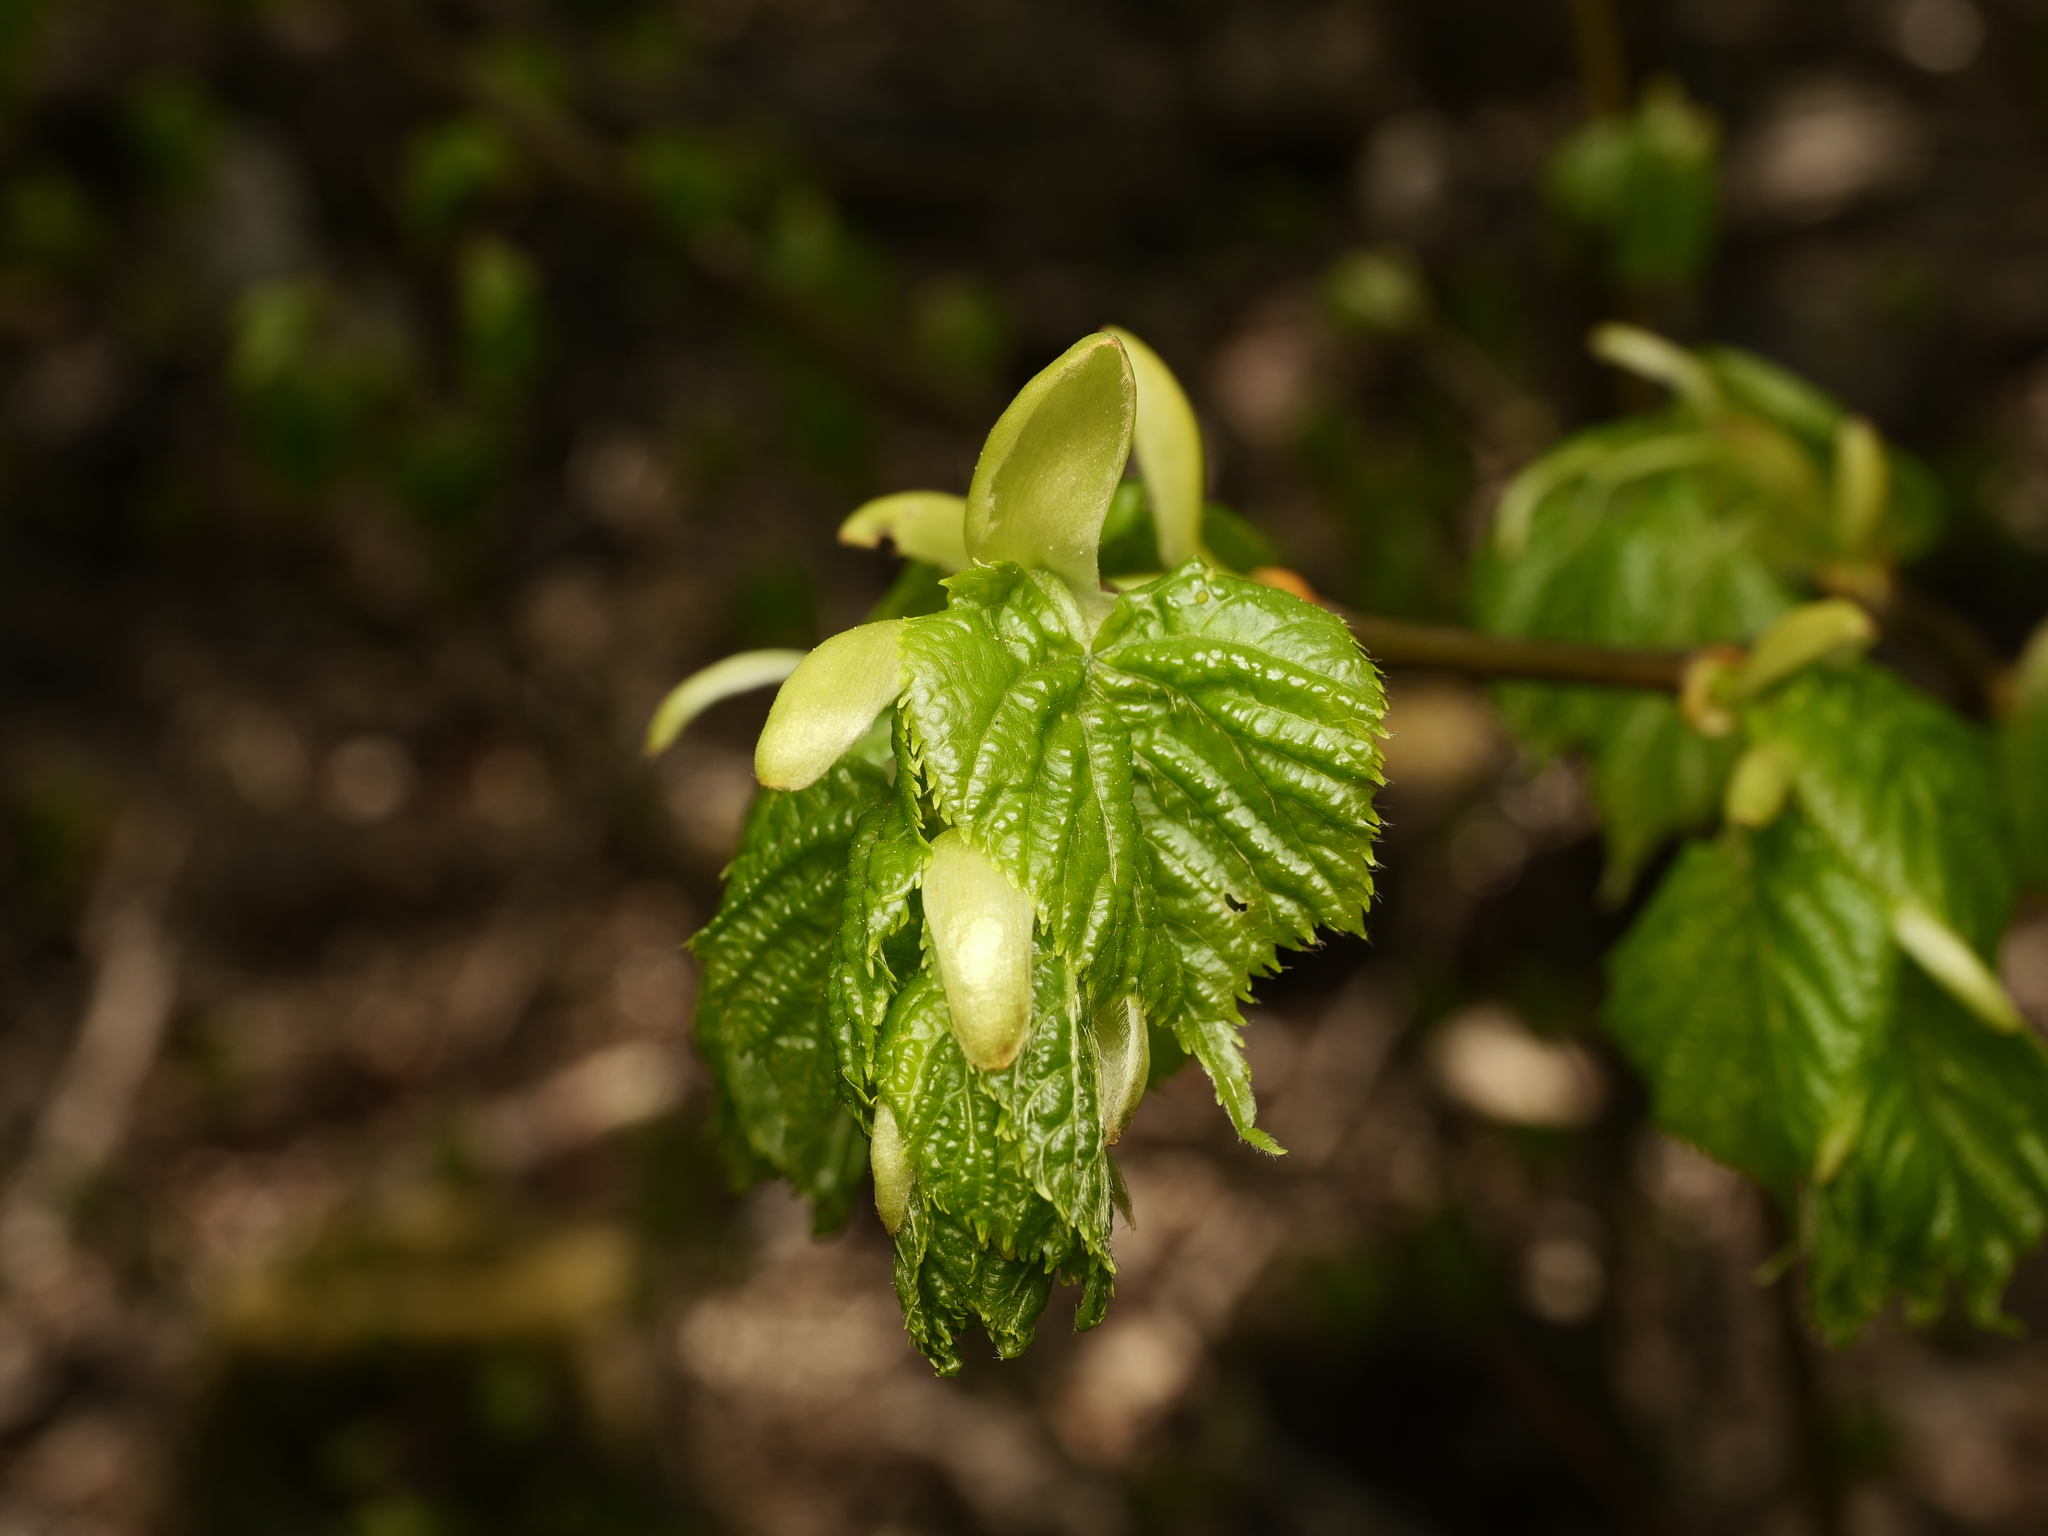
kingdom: Plantae
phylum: Tracheophyta
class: Magnoliopsida
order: Fagales
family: Betulaceae
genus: Corylus
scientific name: Corylus avellana
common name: European hazel
